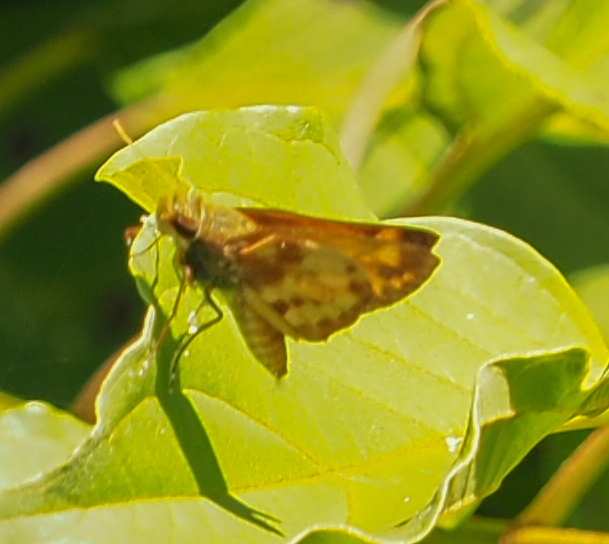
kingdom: Animalia
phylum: Arthropoda
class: Insecta
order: Lepidoptera
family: Hesperiidae
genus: Lon
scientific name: Lon zabulon
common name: Zabulon skipper
